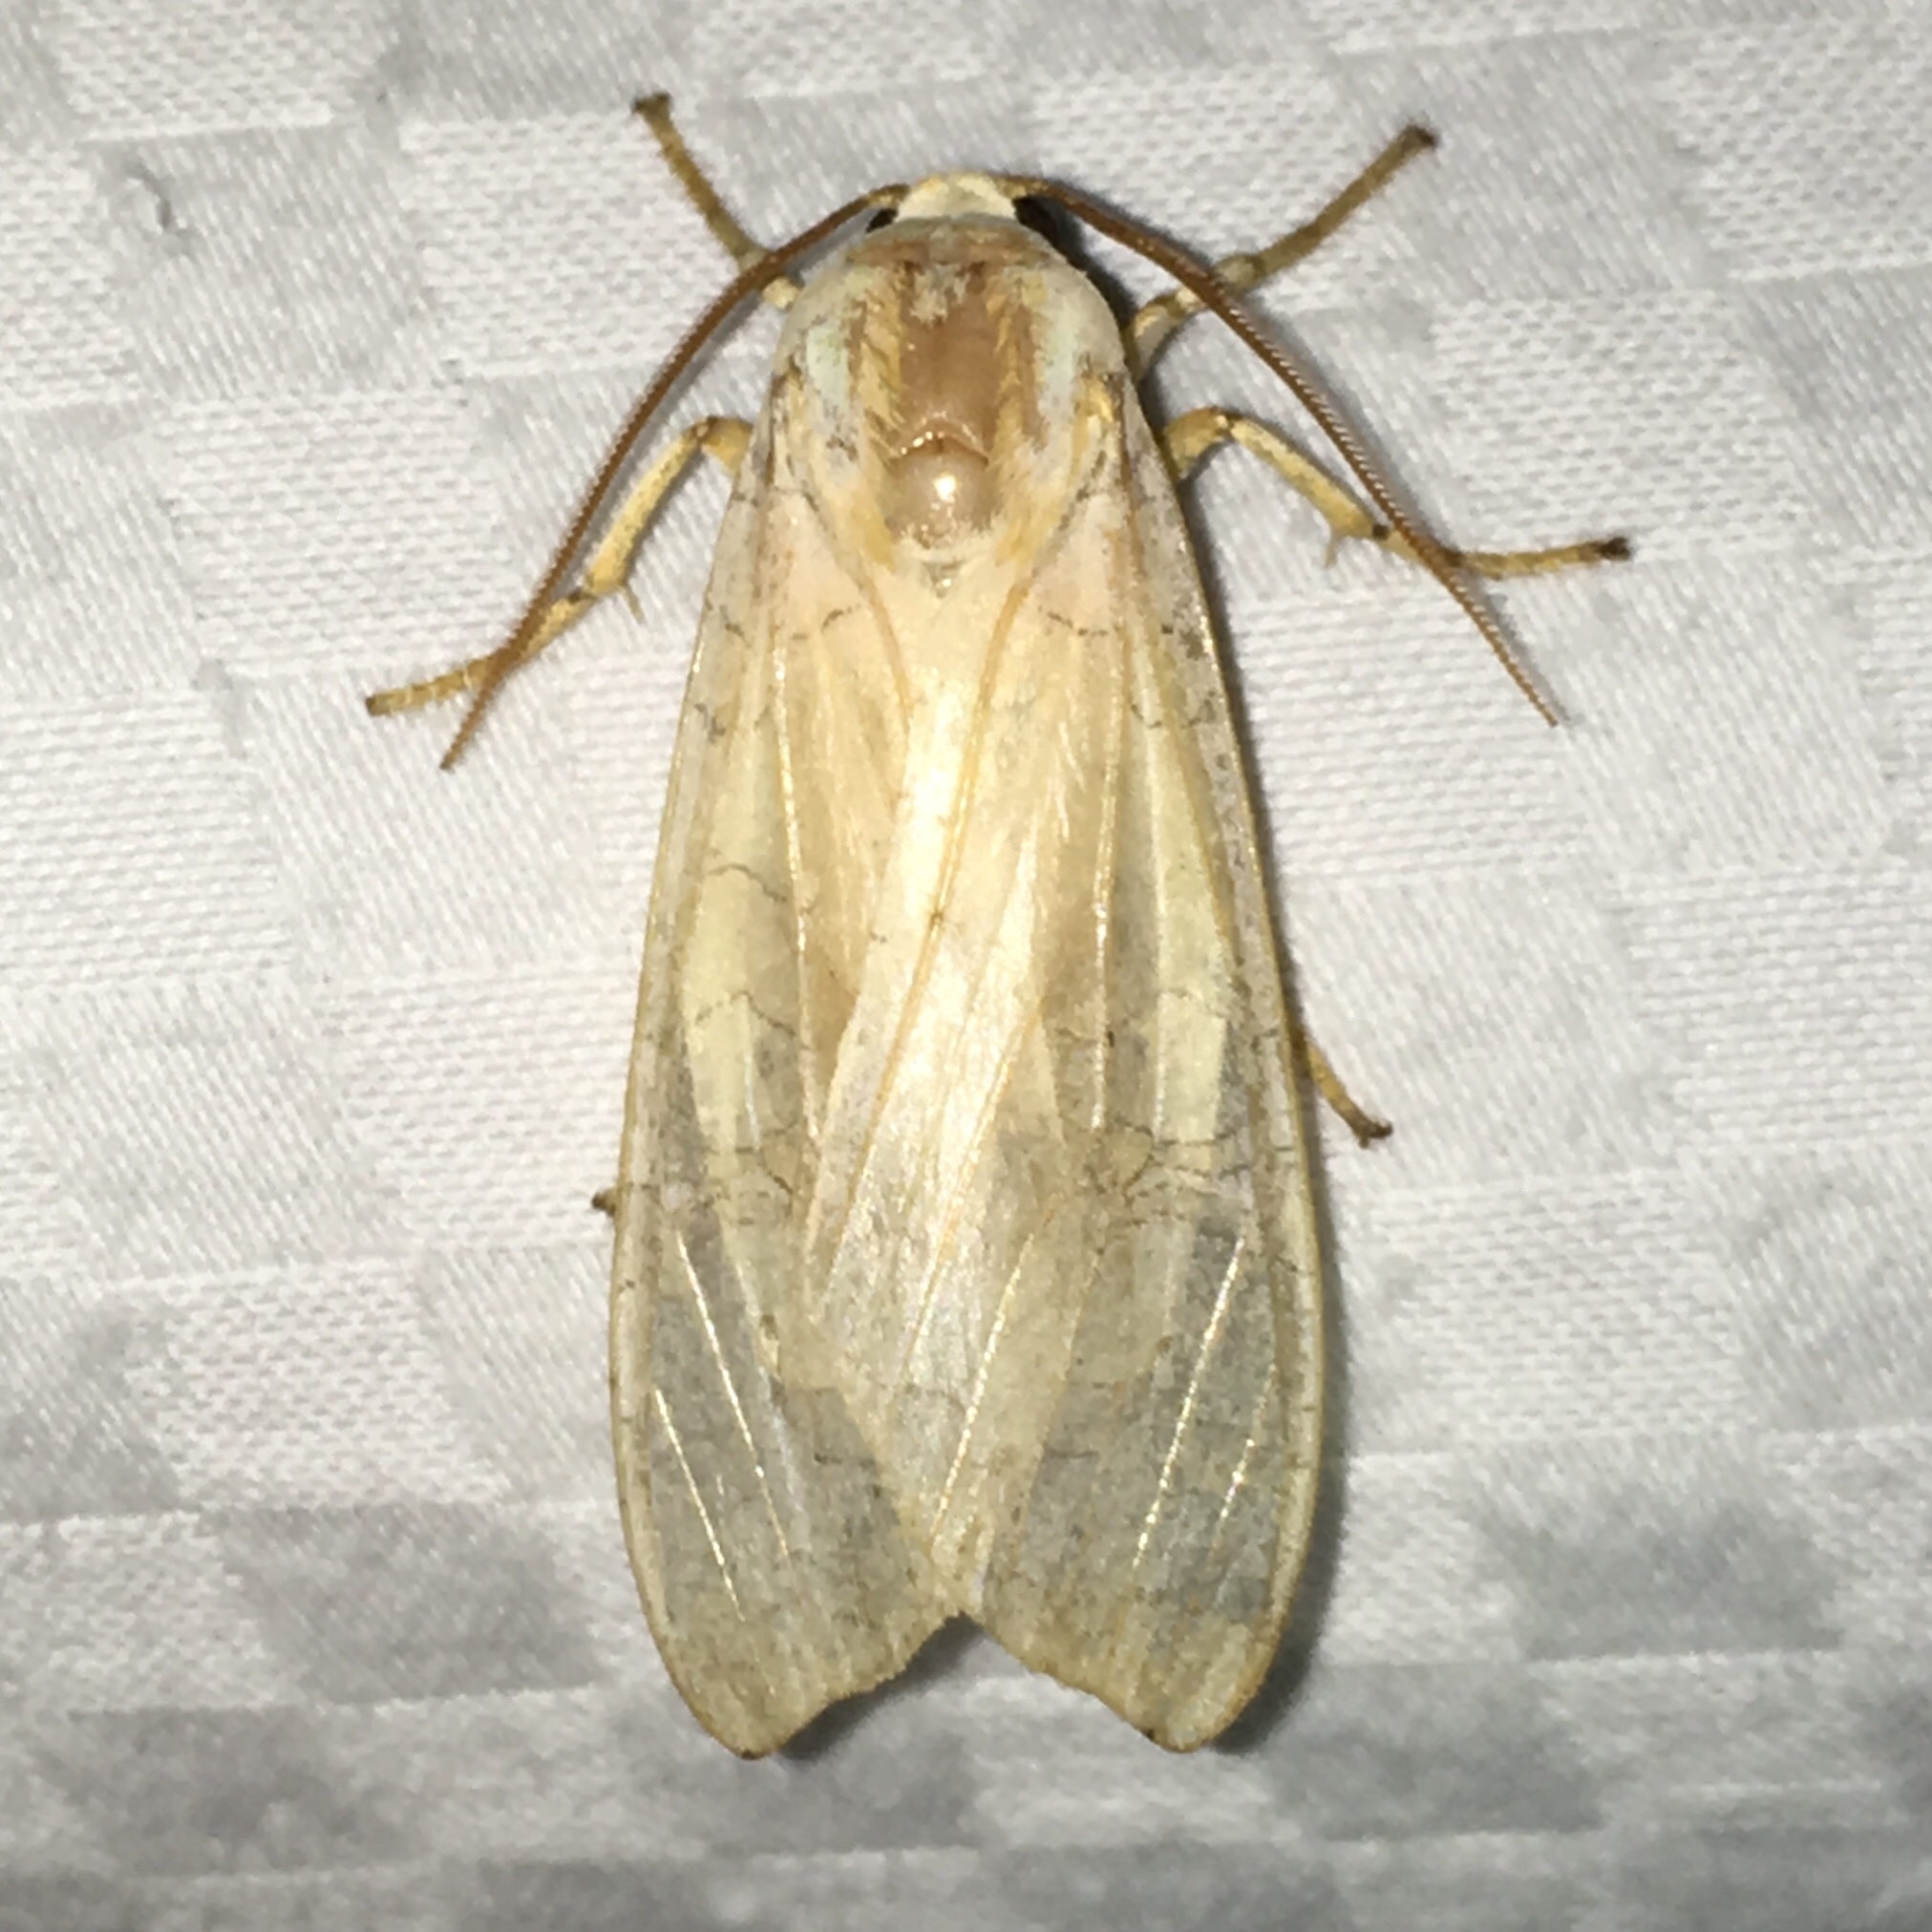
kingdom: Animalia
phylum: Arthropoda
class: Insecta
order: Lepidoptera
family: Erebidae
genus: Halysidota
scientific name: Halysidota tessellaris
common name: Banded tussock moth
